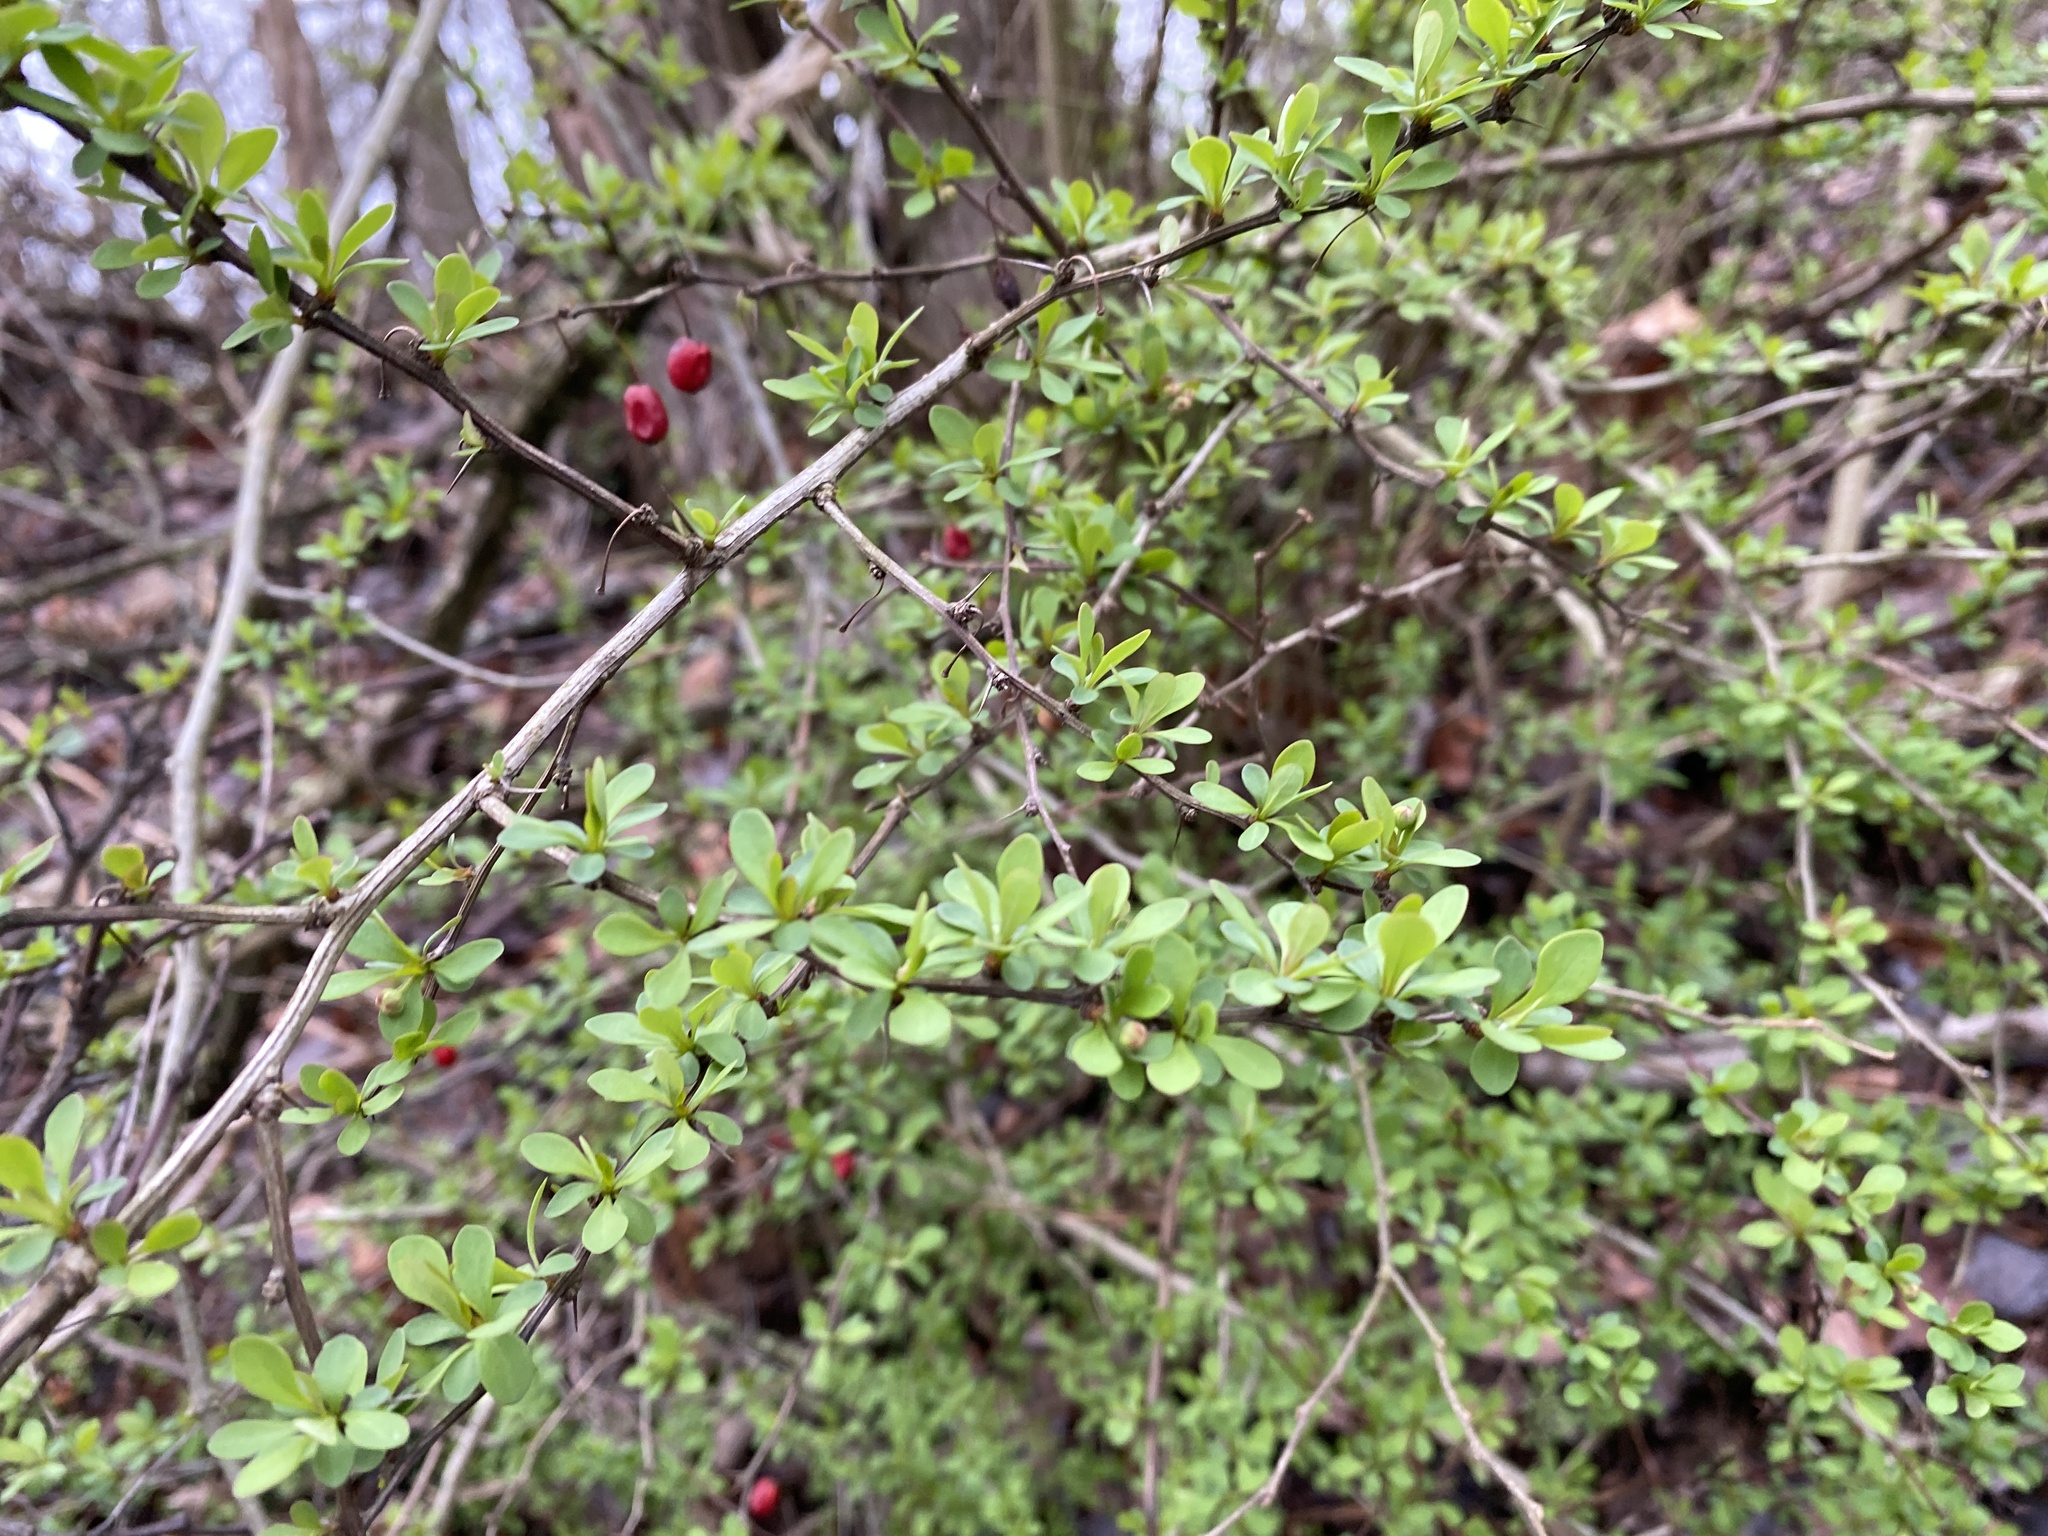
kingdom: Plantae
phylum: Tracheophyta
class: Magnoliopsida
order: Ranunculales
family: Berberidaceae
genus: Berberis
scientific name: Berberis thunbergii
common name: Japanese barberry
